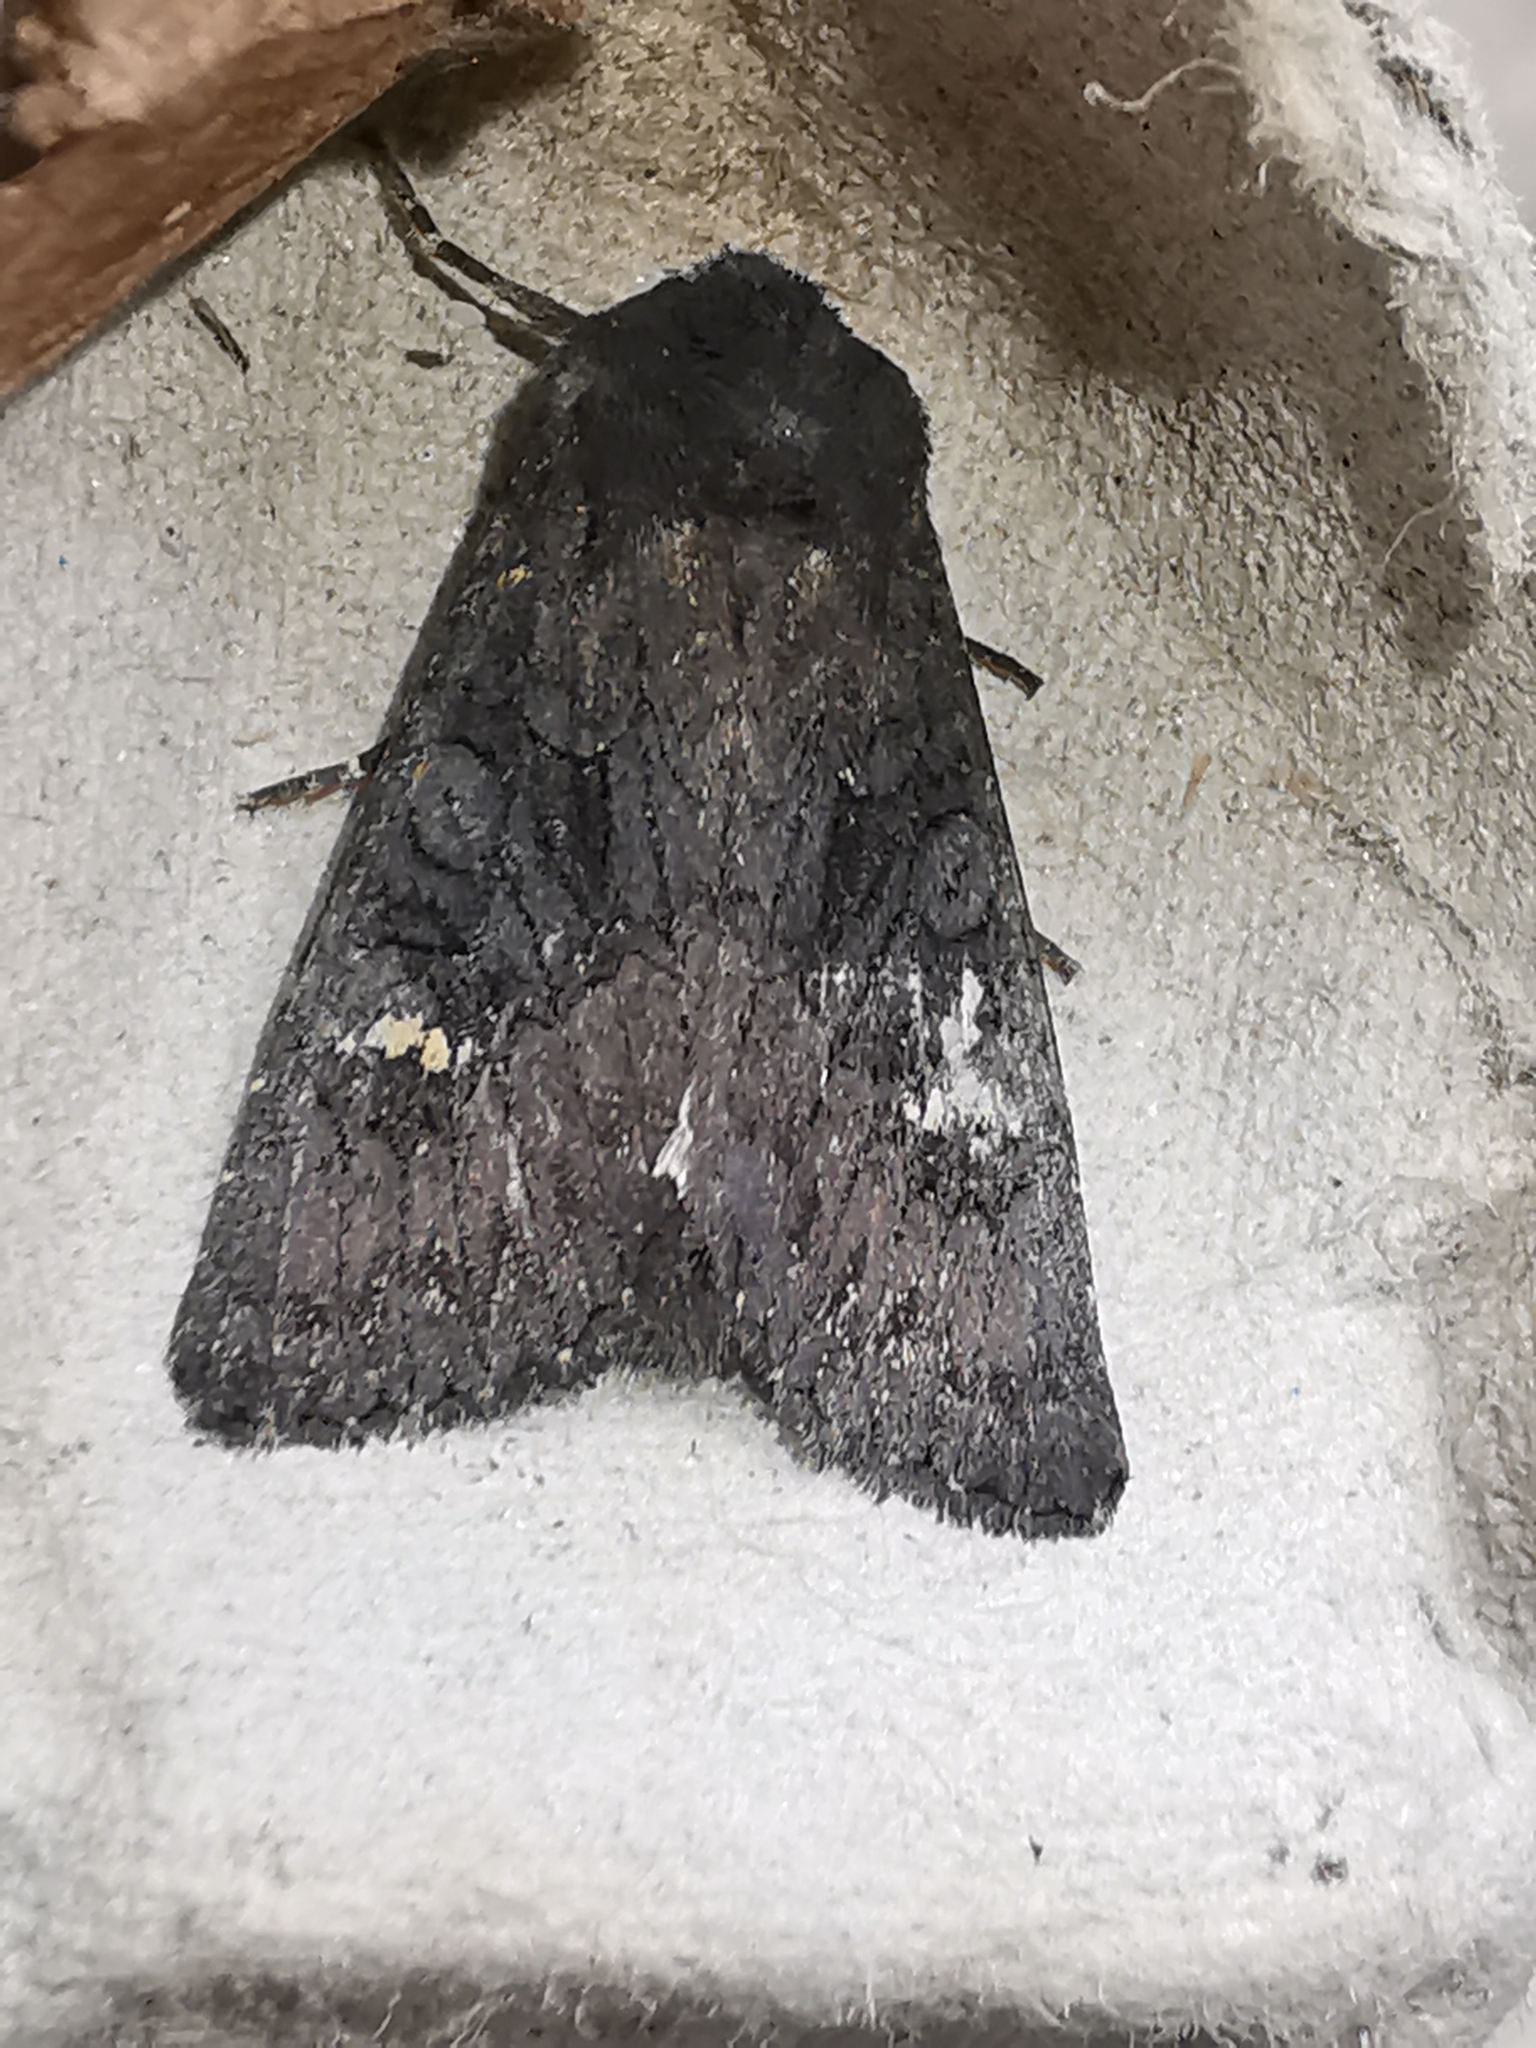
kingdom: Animalia
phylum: Arthropoda
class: Insecta
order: Lepidoptera
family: Noctuidae
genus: Aporophyla
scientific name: Aporophyla nigra
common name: Black rustic
